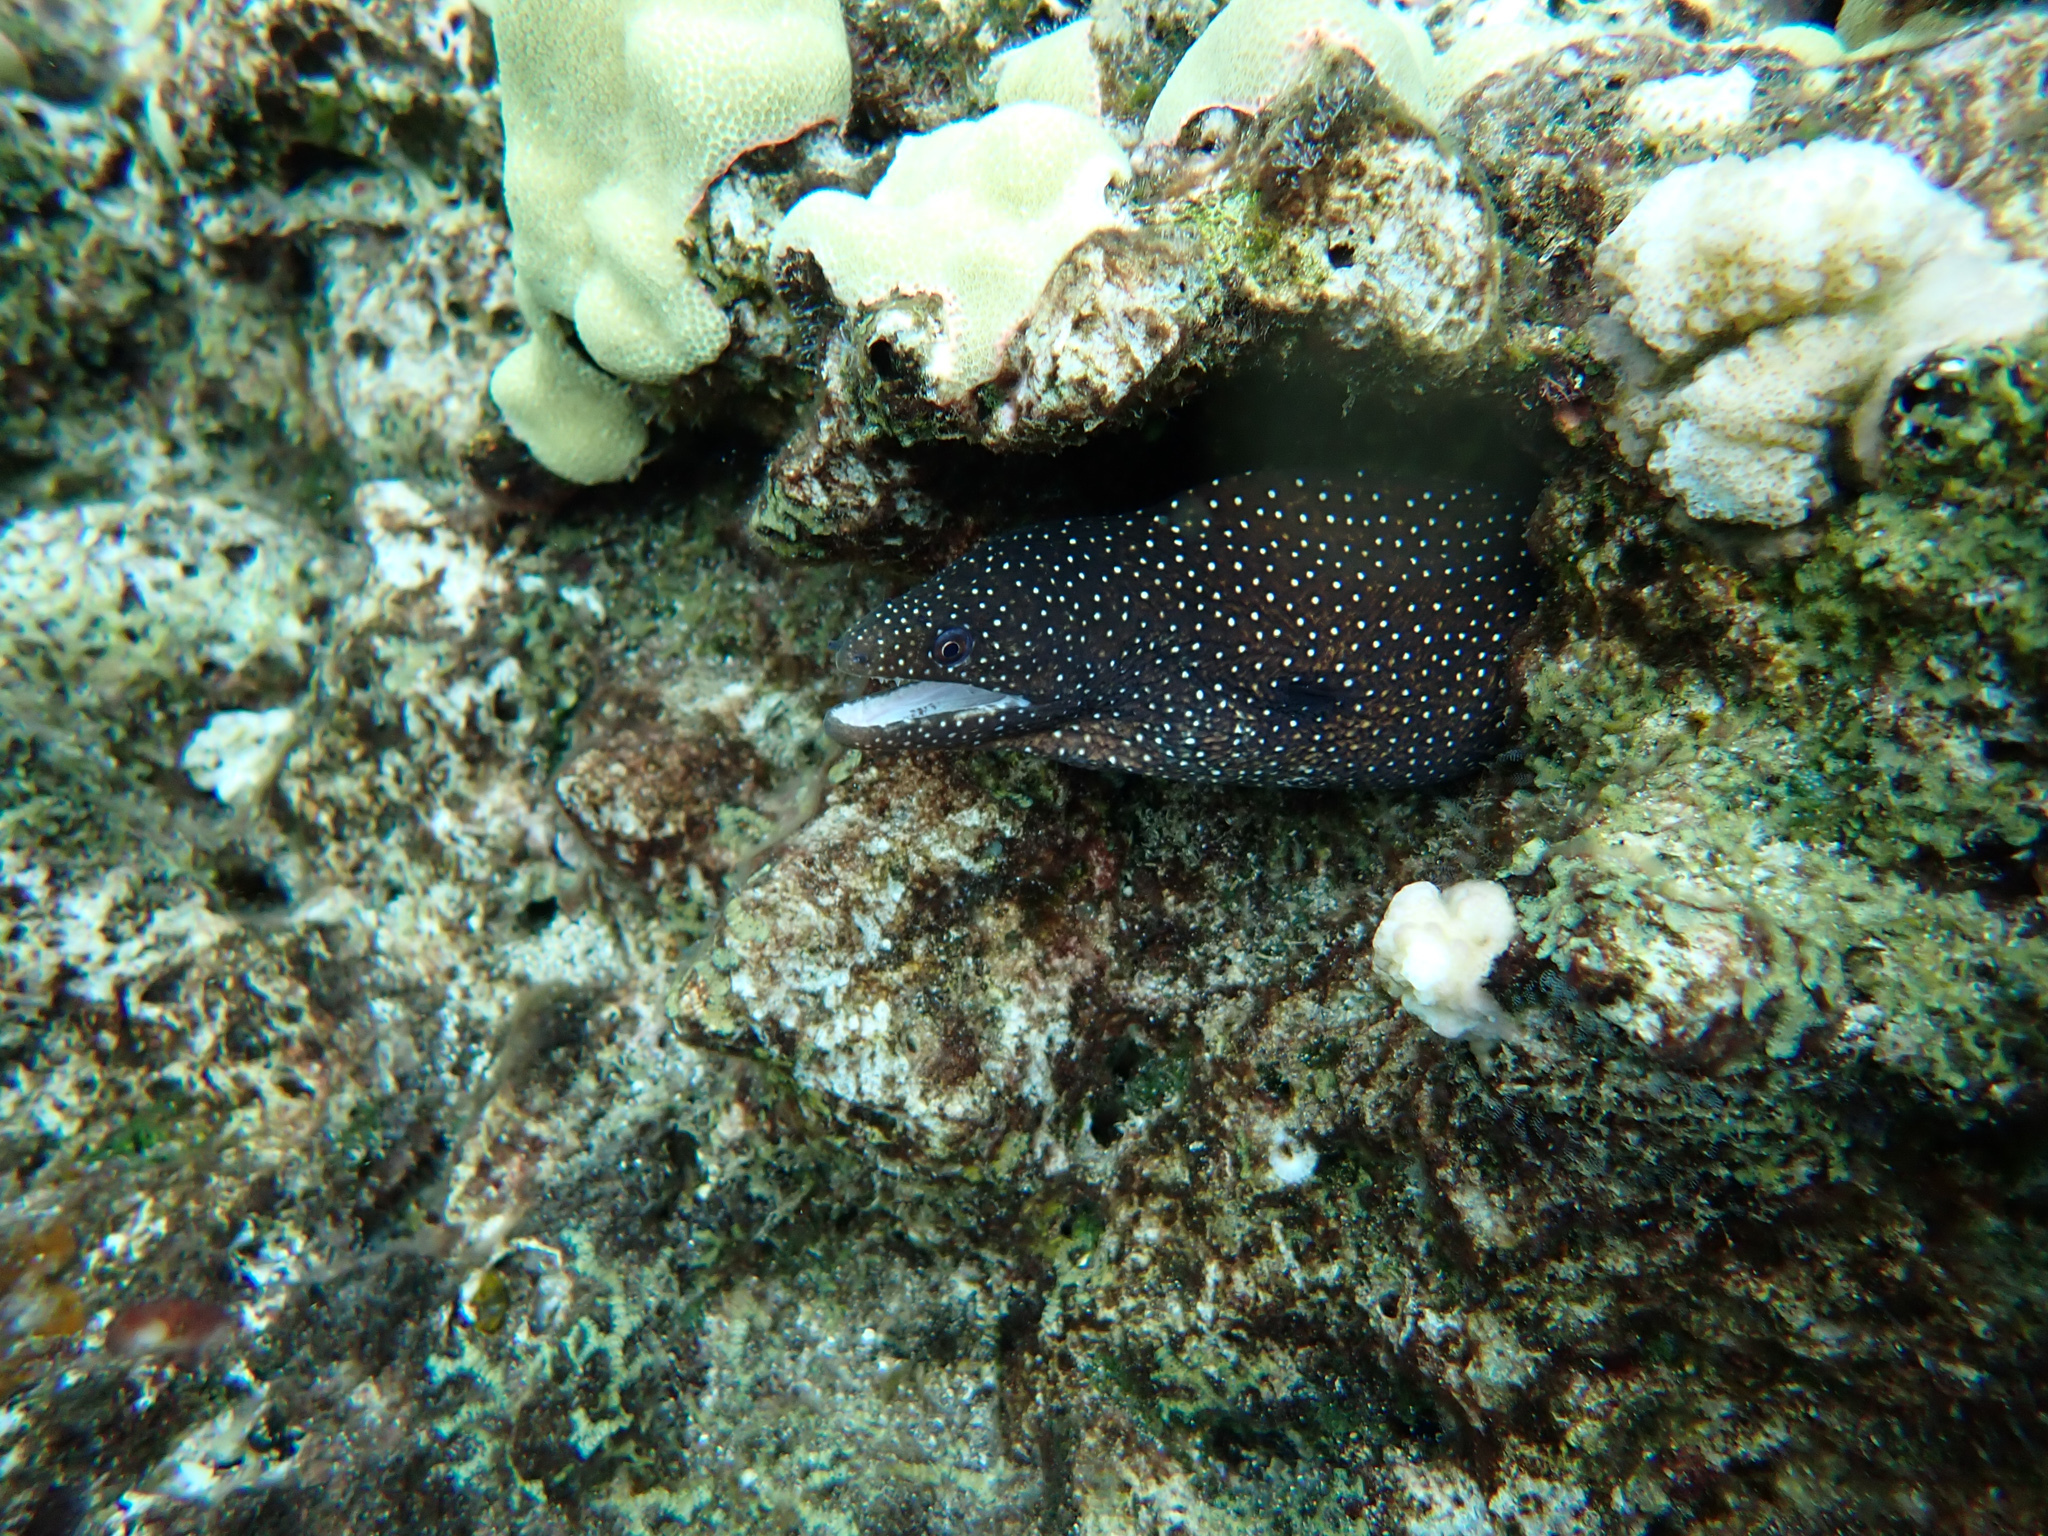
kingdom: Animalia
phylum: Chordata
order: Anguilliformes
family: Muraenidae
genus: Gymnothorax
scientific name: Gymnothorax meleagris
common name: Guineafowl moray
